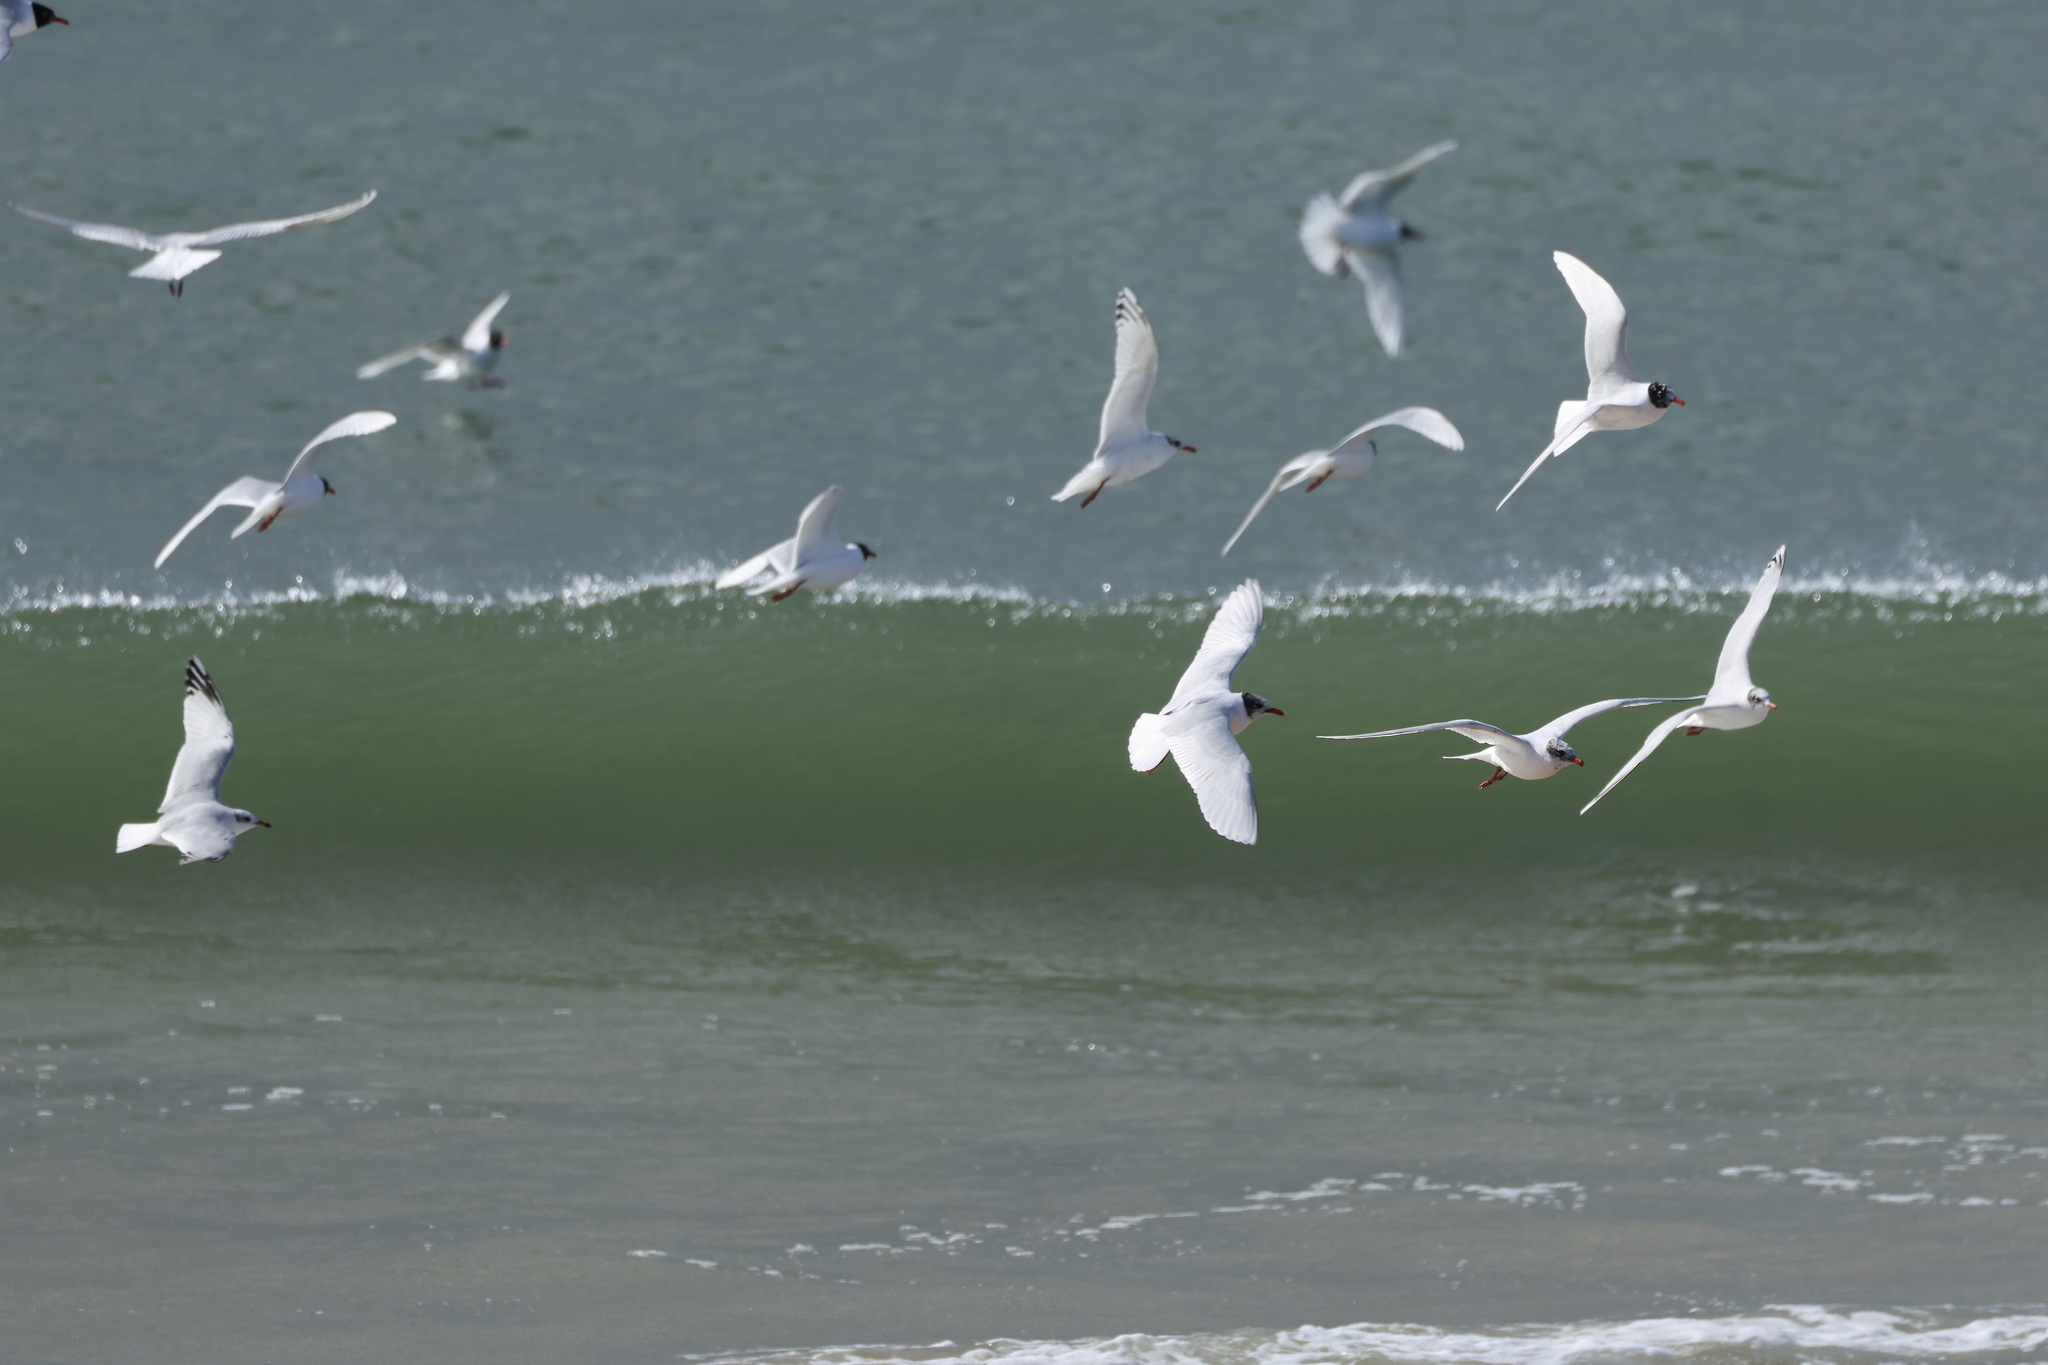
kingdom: Animalia
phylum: Chordata
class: Aves
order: Charadriiformes
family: Laridae
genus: Ichthyaetus
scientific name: Ichthyaetus melanocephalus
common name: Mediterranean gull
